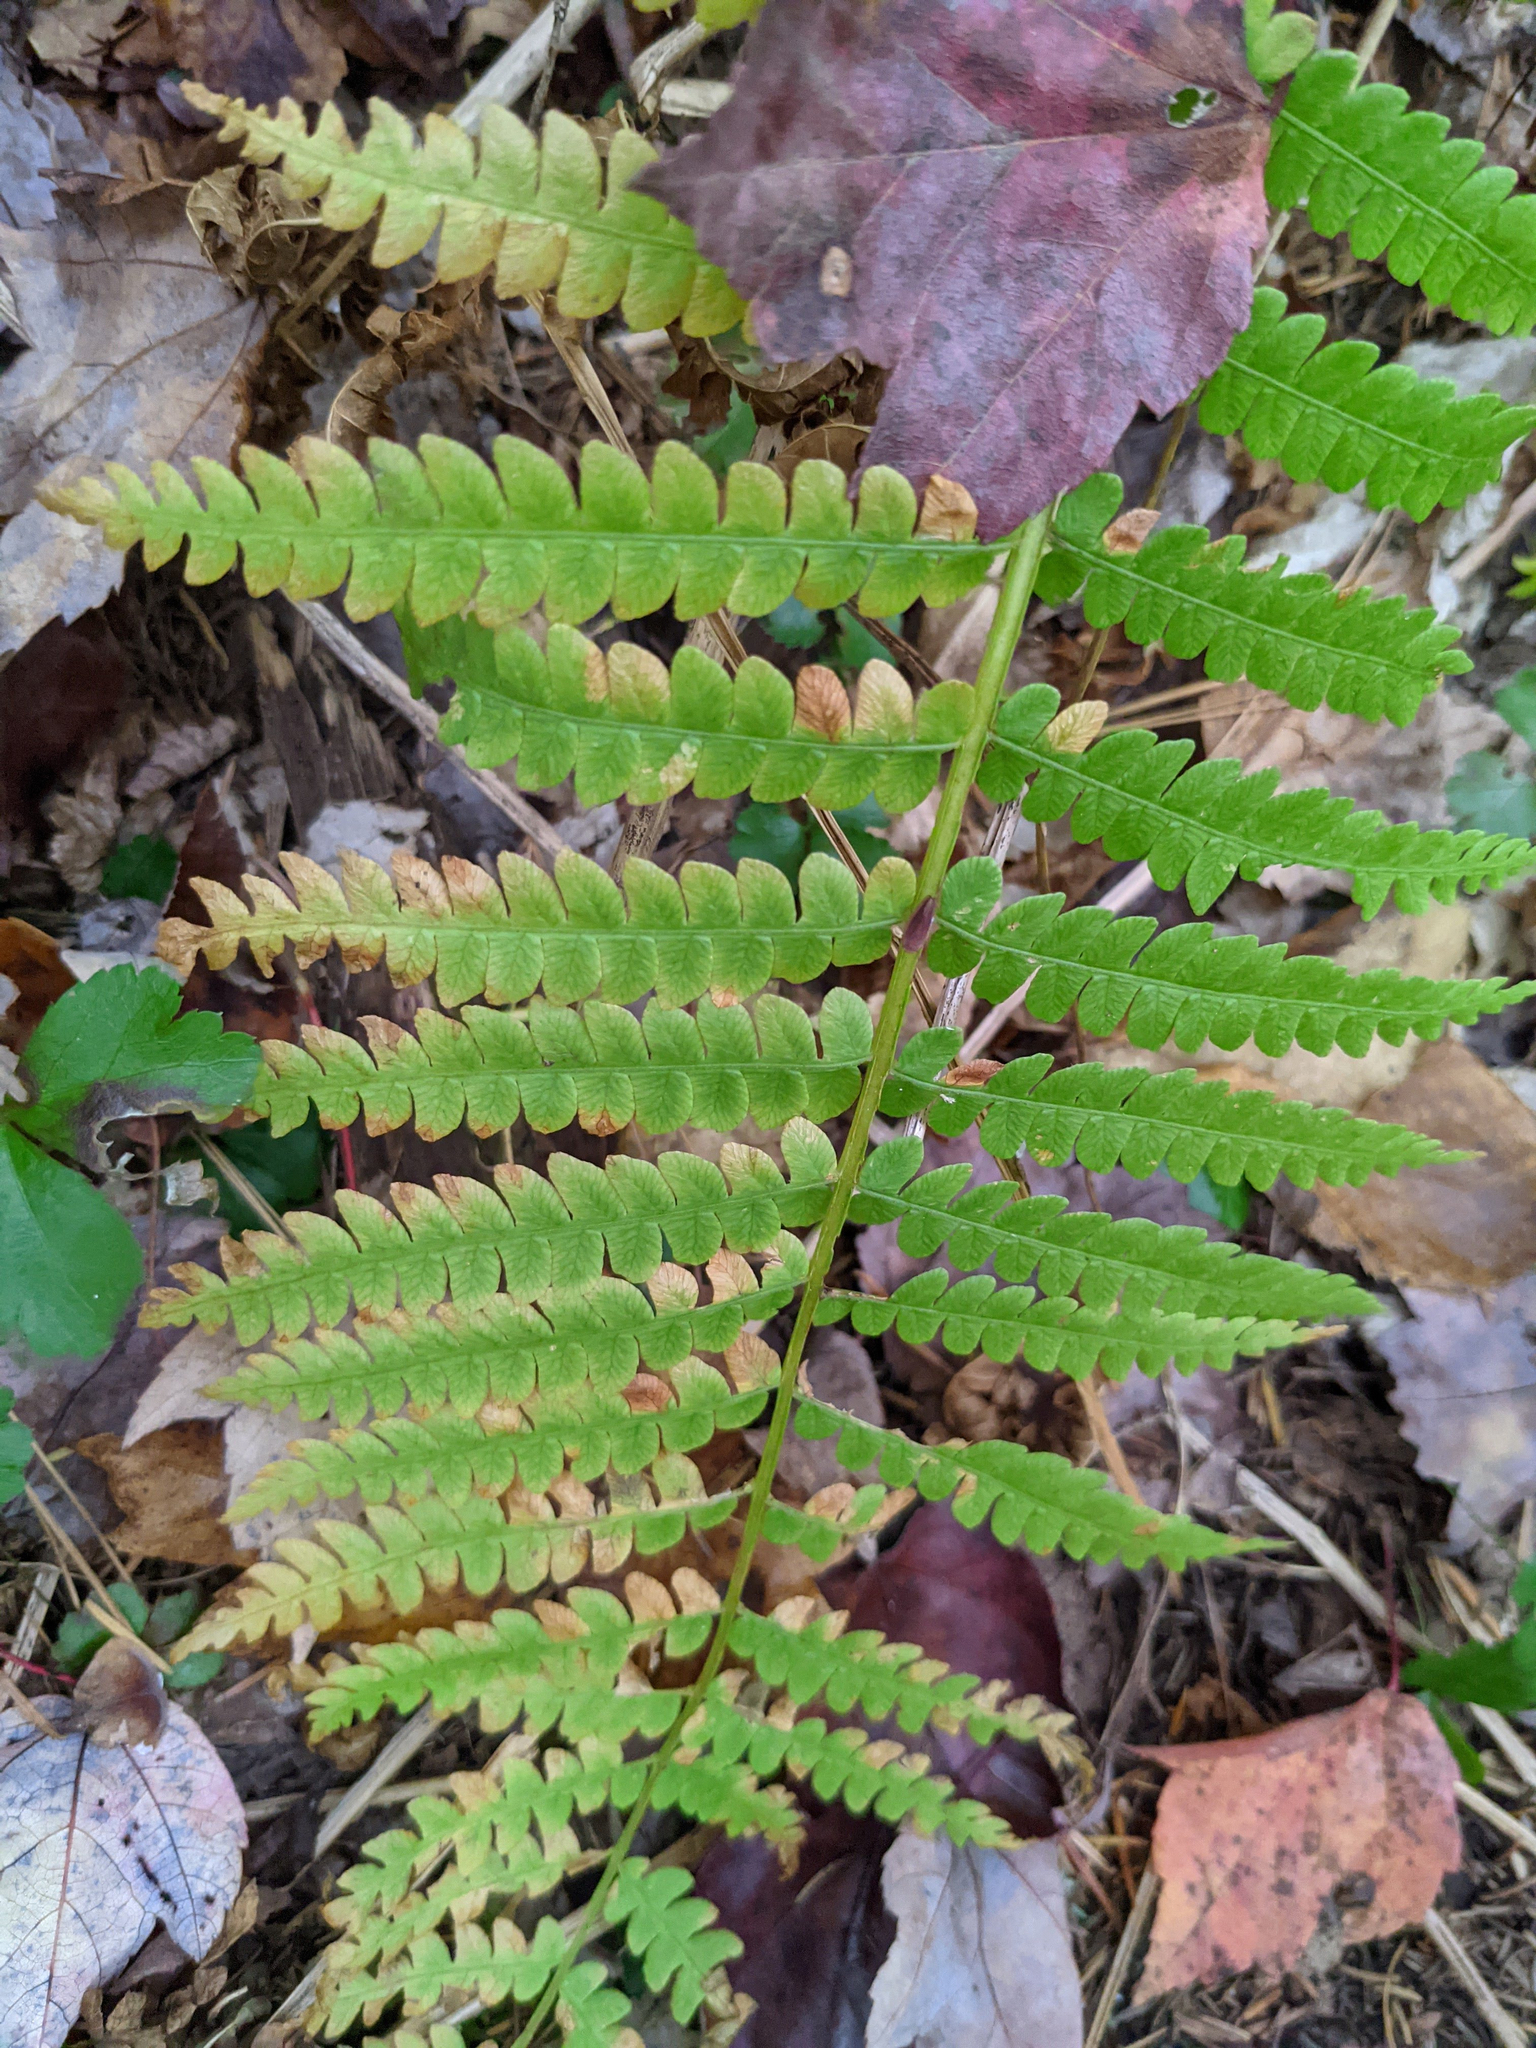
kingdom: Plantae
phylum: Tracheophyta
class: Polypodiopsida
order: Osmundales
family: Osmundaceae
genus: Osmundastrum
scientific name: Osmundastrum cinnamomeum
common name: Cinnamon fern
